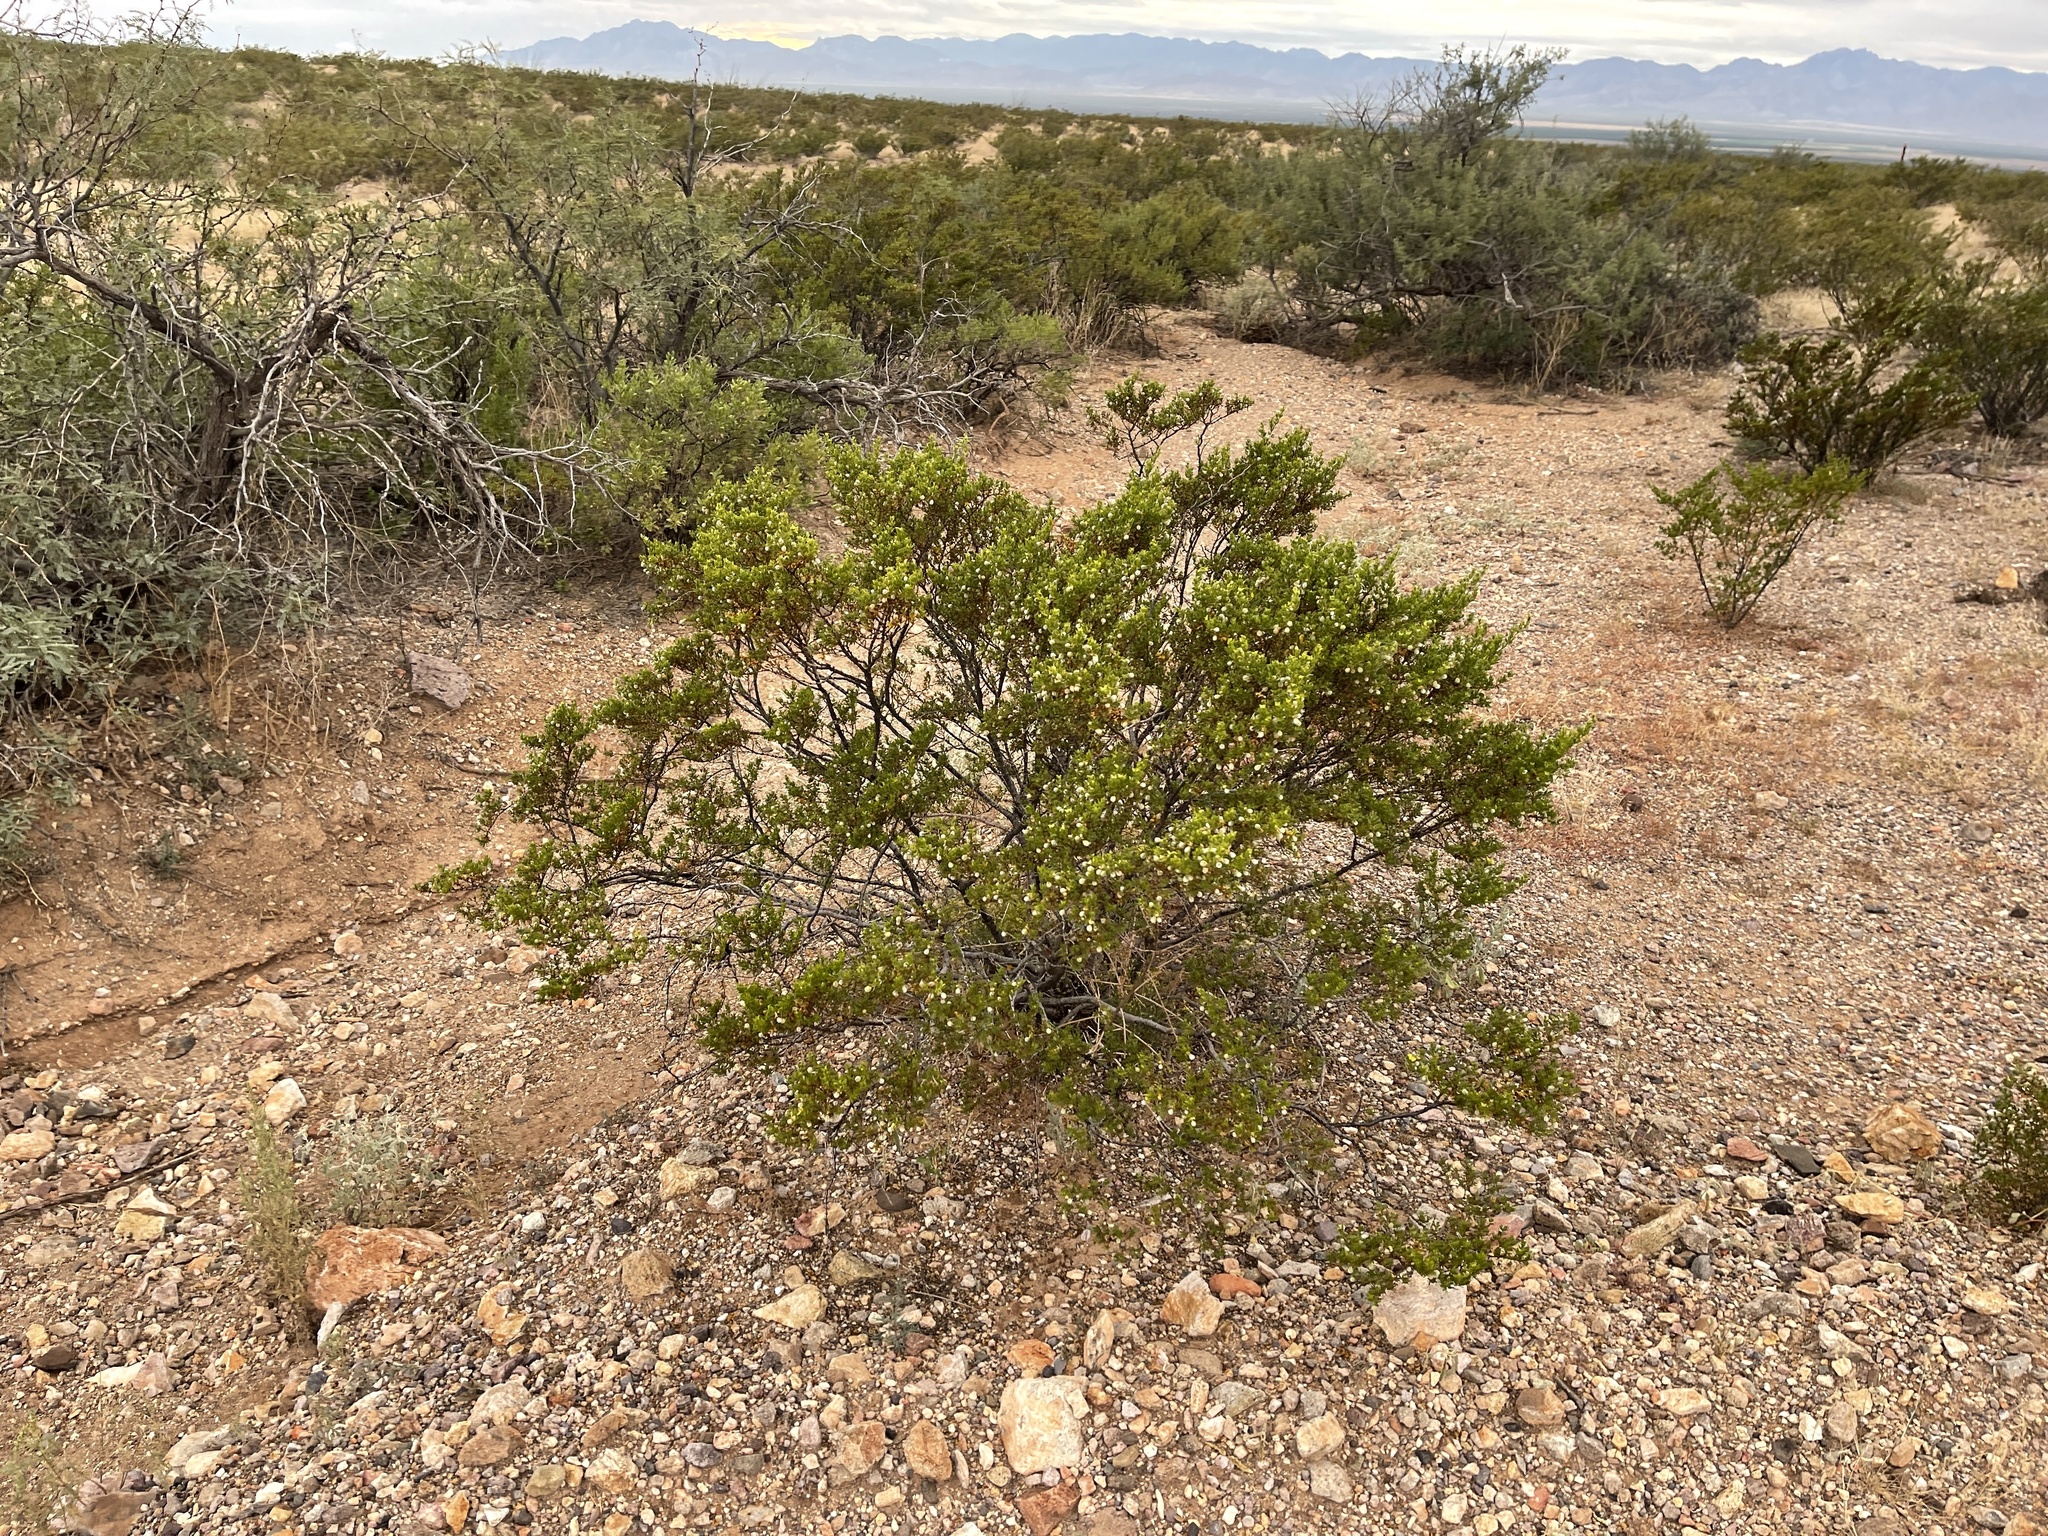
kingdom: Plantae
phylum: Tracheophyta
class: Magnoliopsida
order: Zygophyllales
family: Zygophyllaceae
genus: Larrea
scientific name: Larrea tridentata
